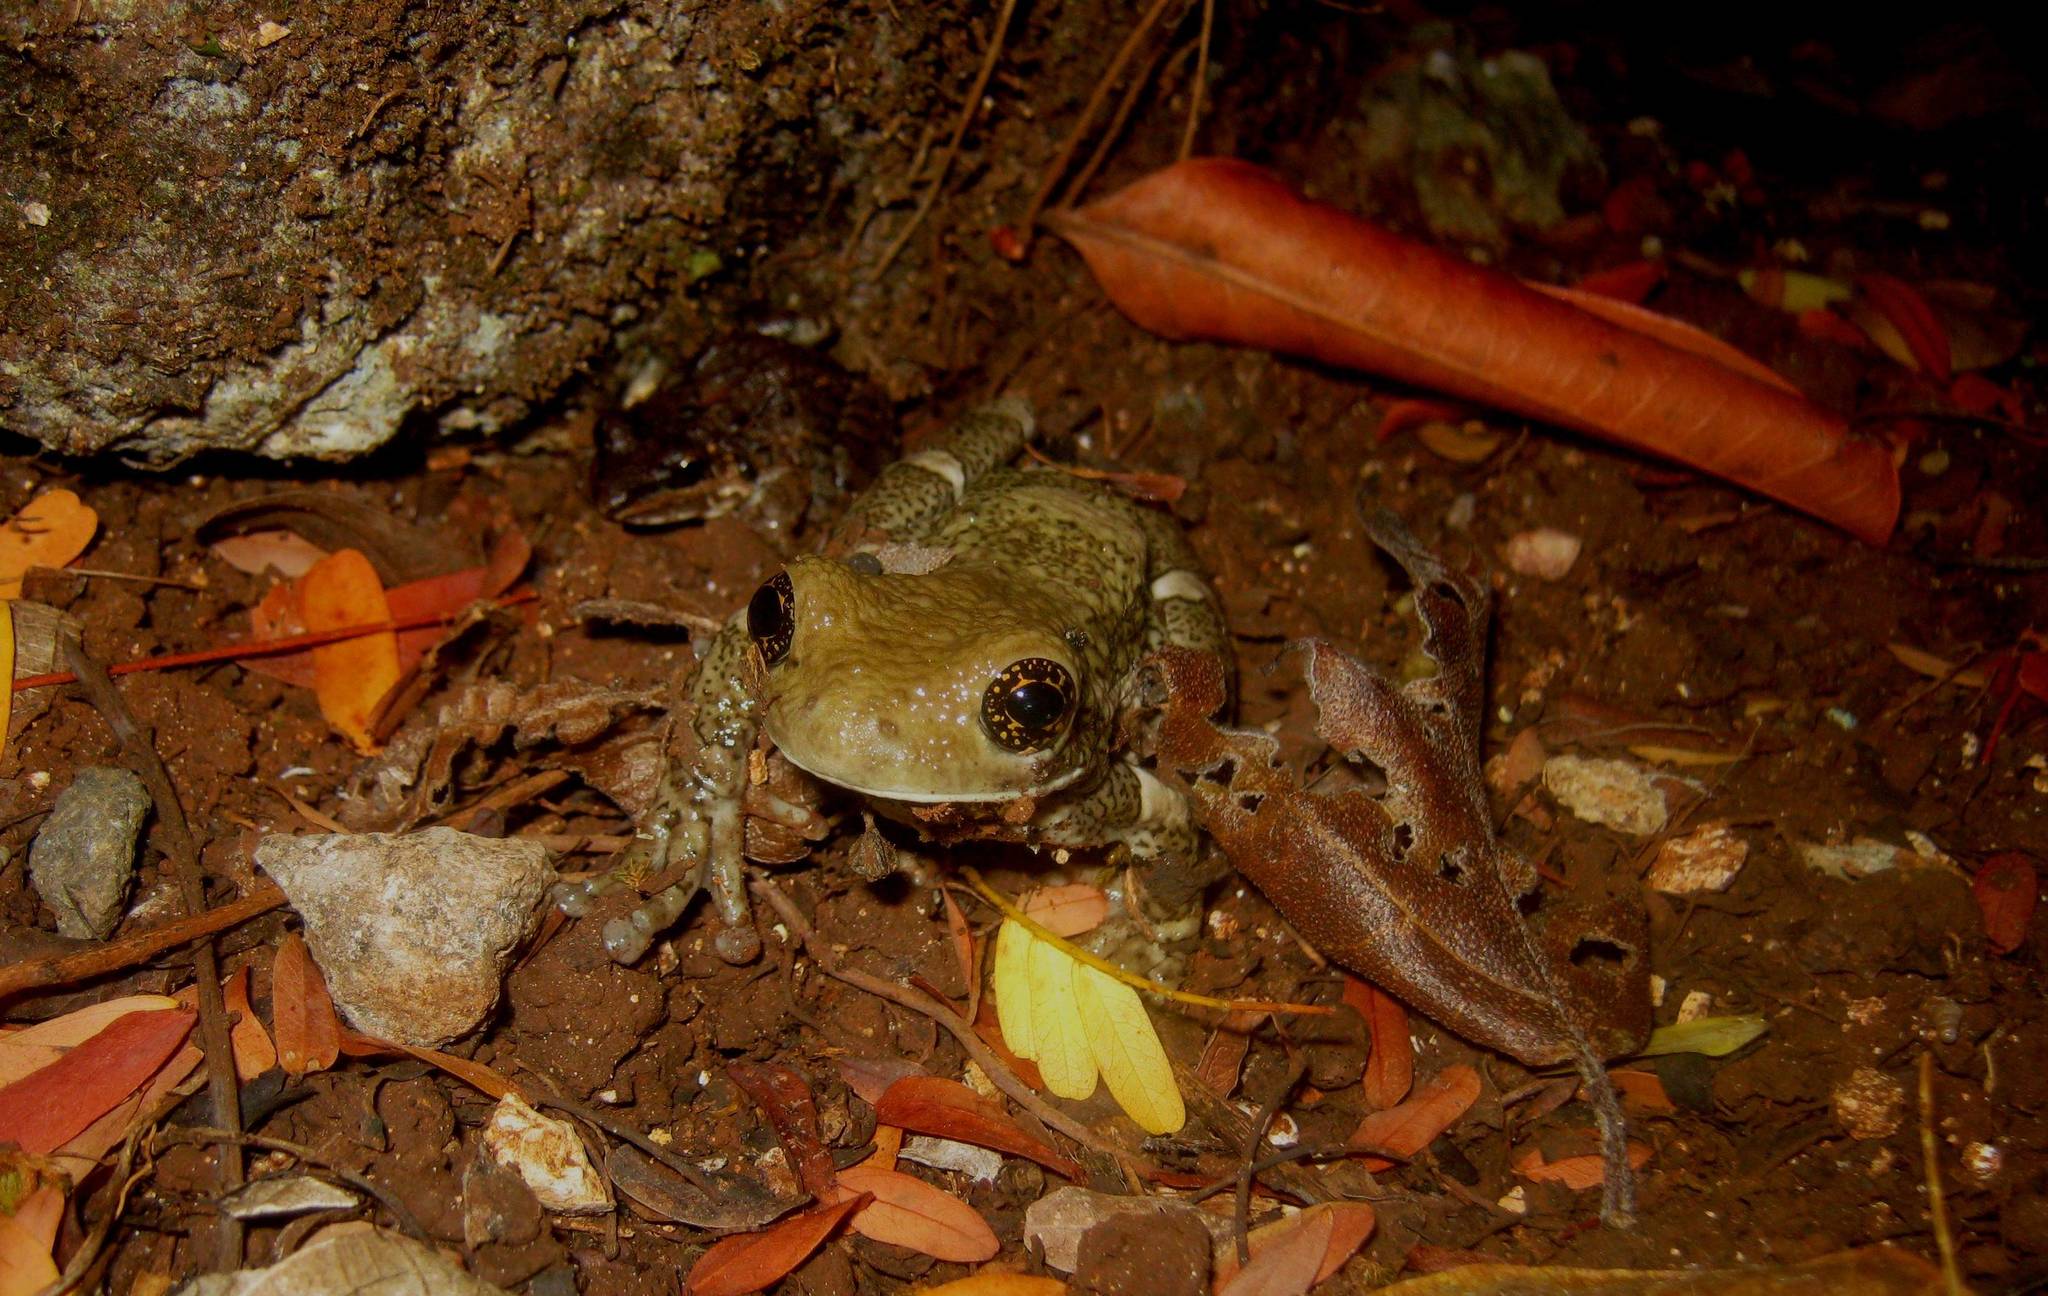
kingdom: Animalia
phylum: Chordata
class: Amphibia
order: Anura
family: Hylidae
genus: Trachycephalus
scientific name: Trachycephalus vermiculatus
